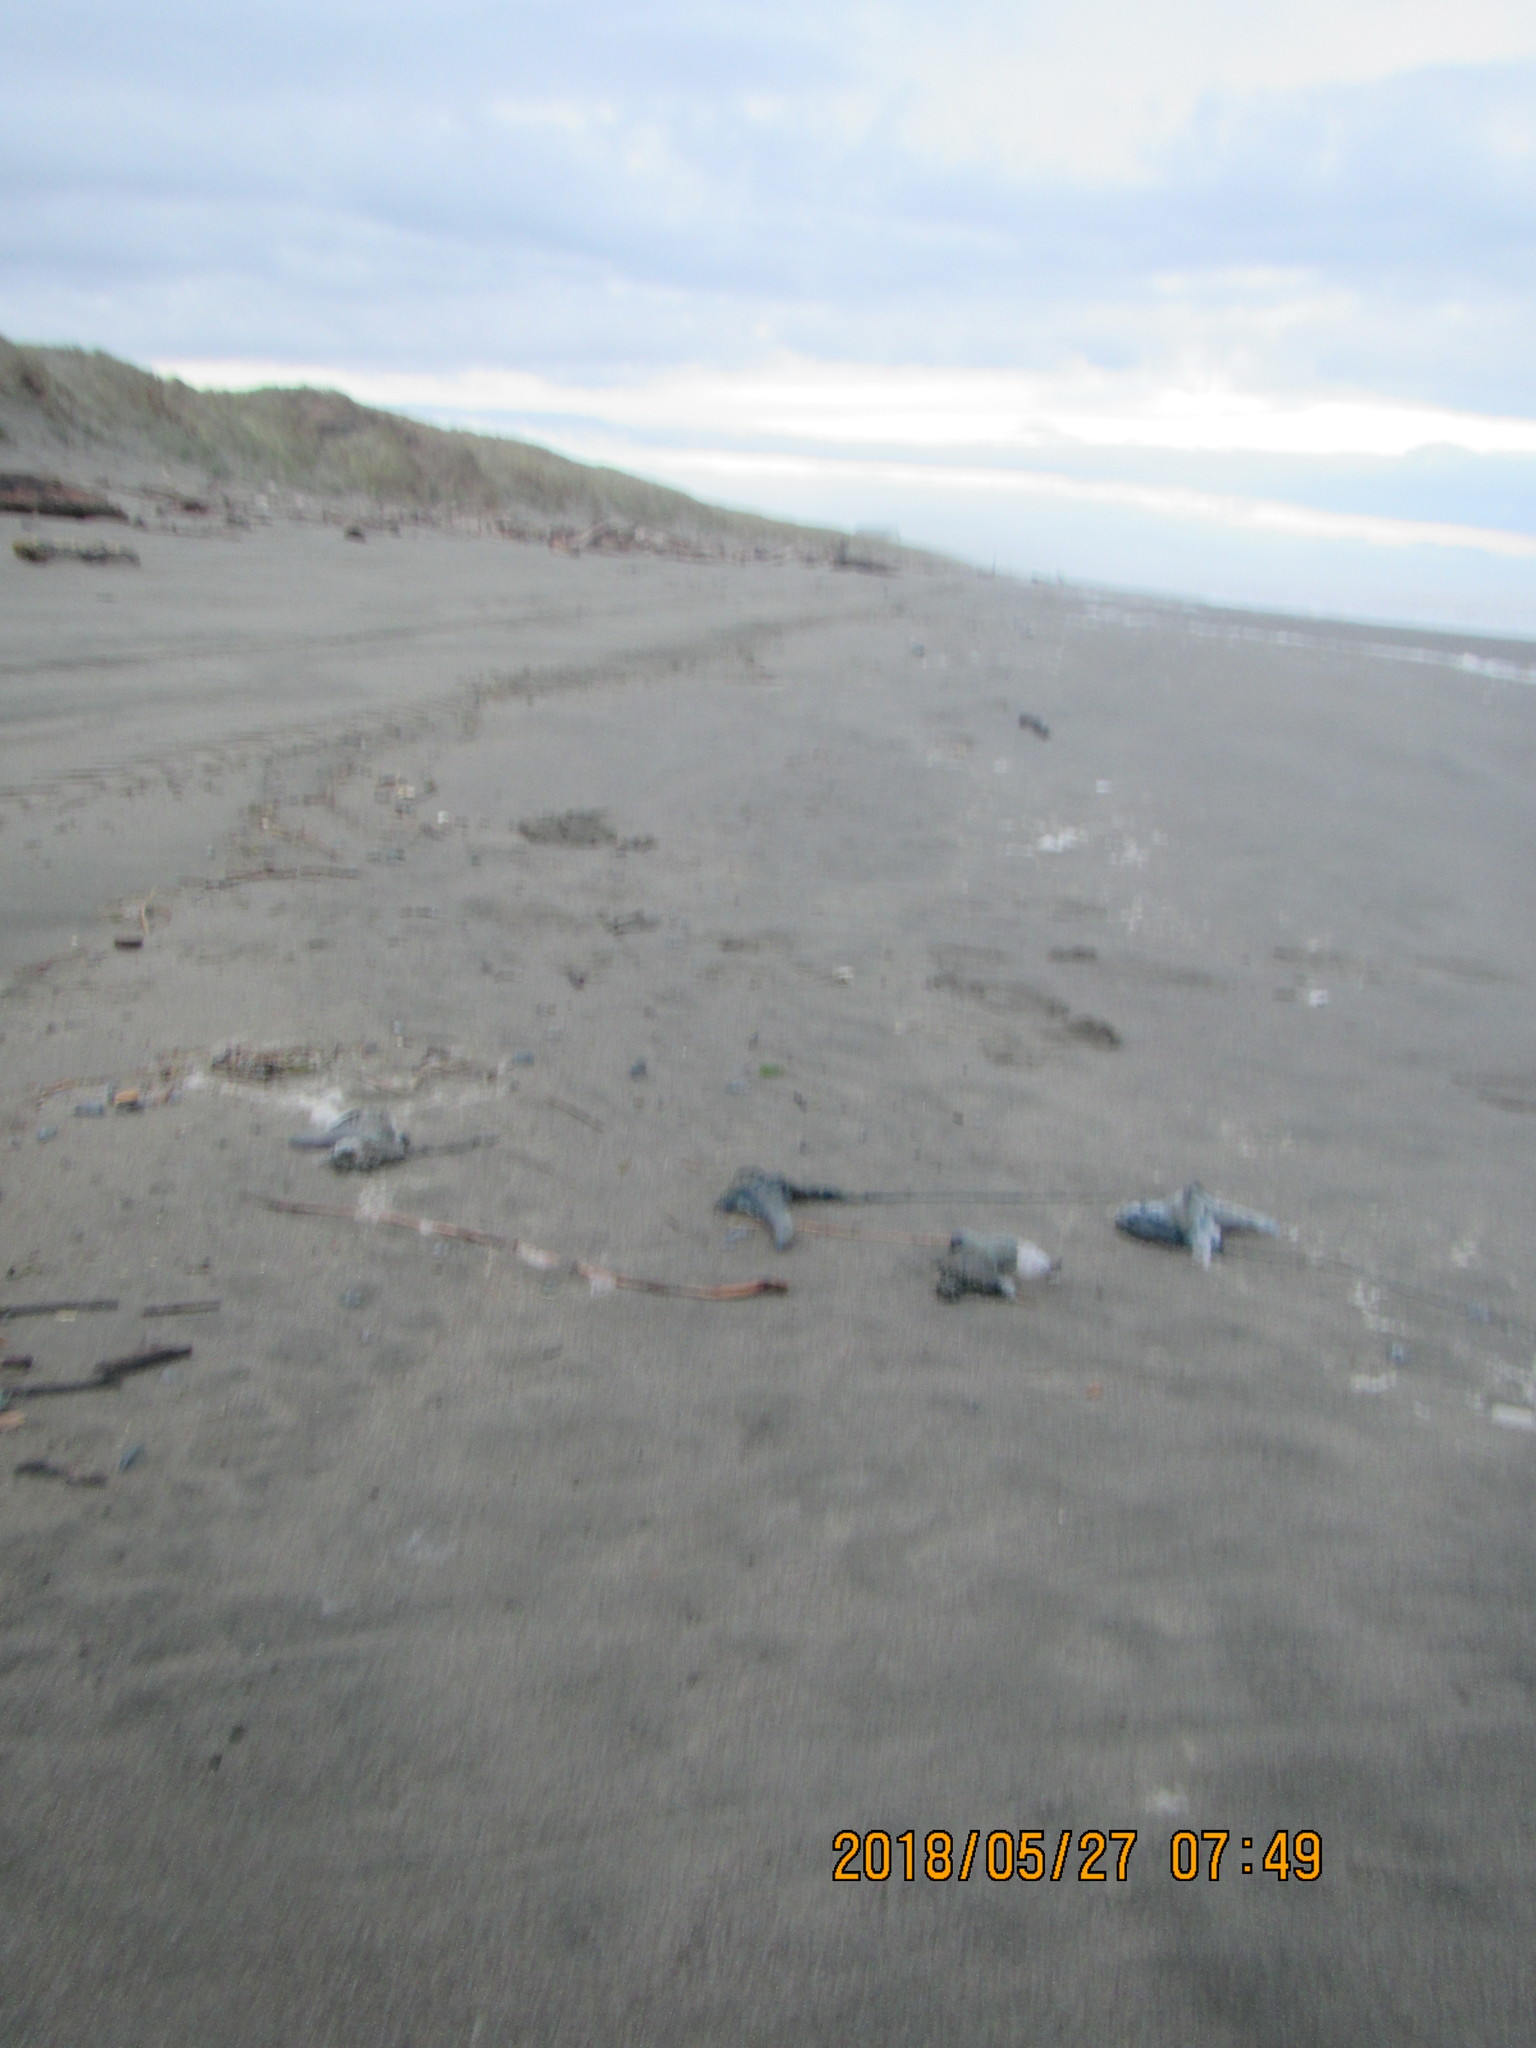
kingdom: Animalia
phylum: Cnidaria
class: Hydrozoa
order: Anthoathecata
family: Porpitidae
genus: Velella
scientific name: Velella velella
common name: By-the-wind-sailor
